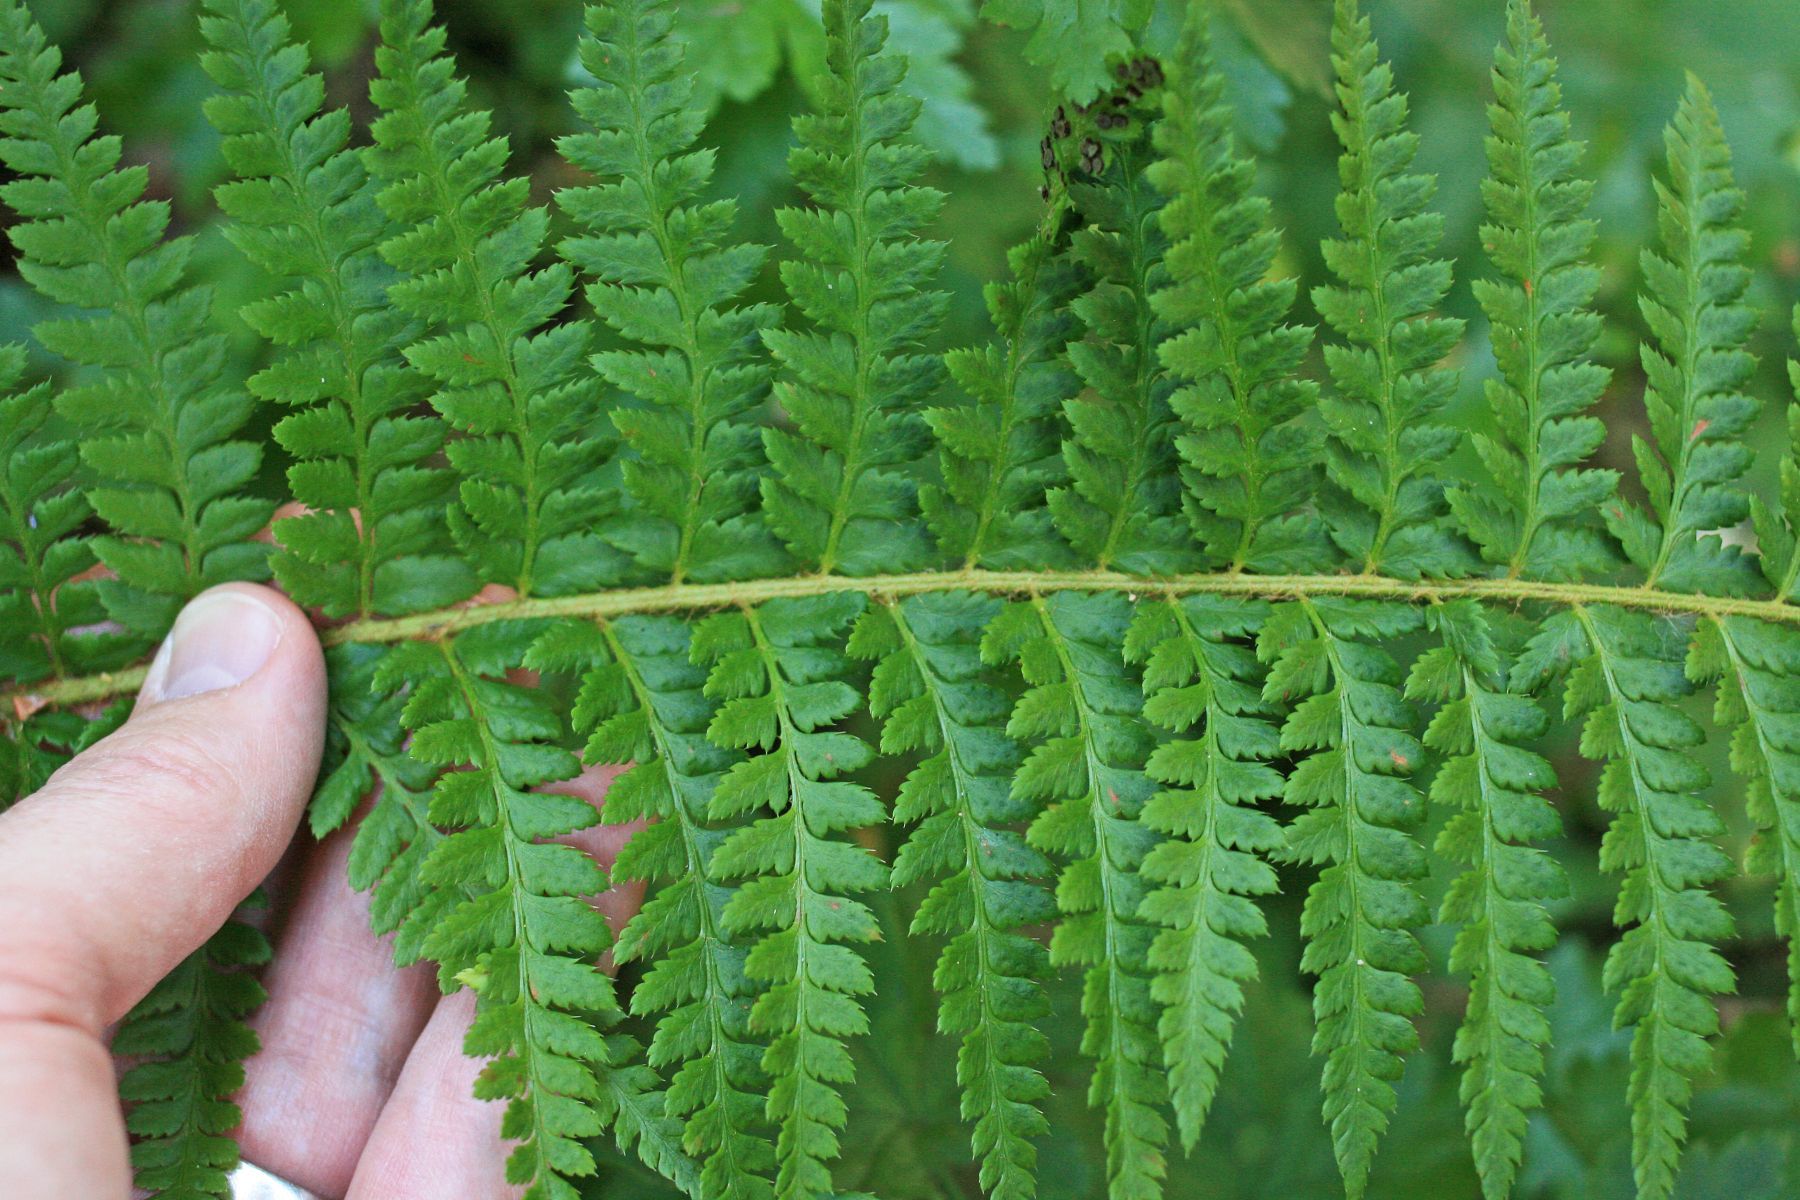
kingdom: Plantae
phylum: Tracheophyta
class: Polypodiopsida
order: Polypodiales
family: Dryopteridaceae
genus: Polystichum
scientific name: Polystichum andersonii
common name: Anderson's holly fern
